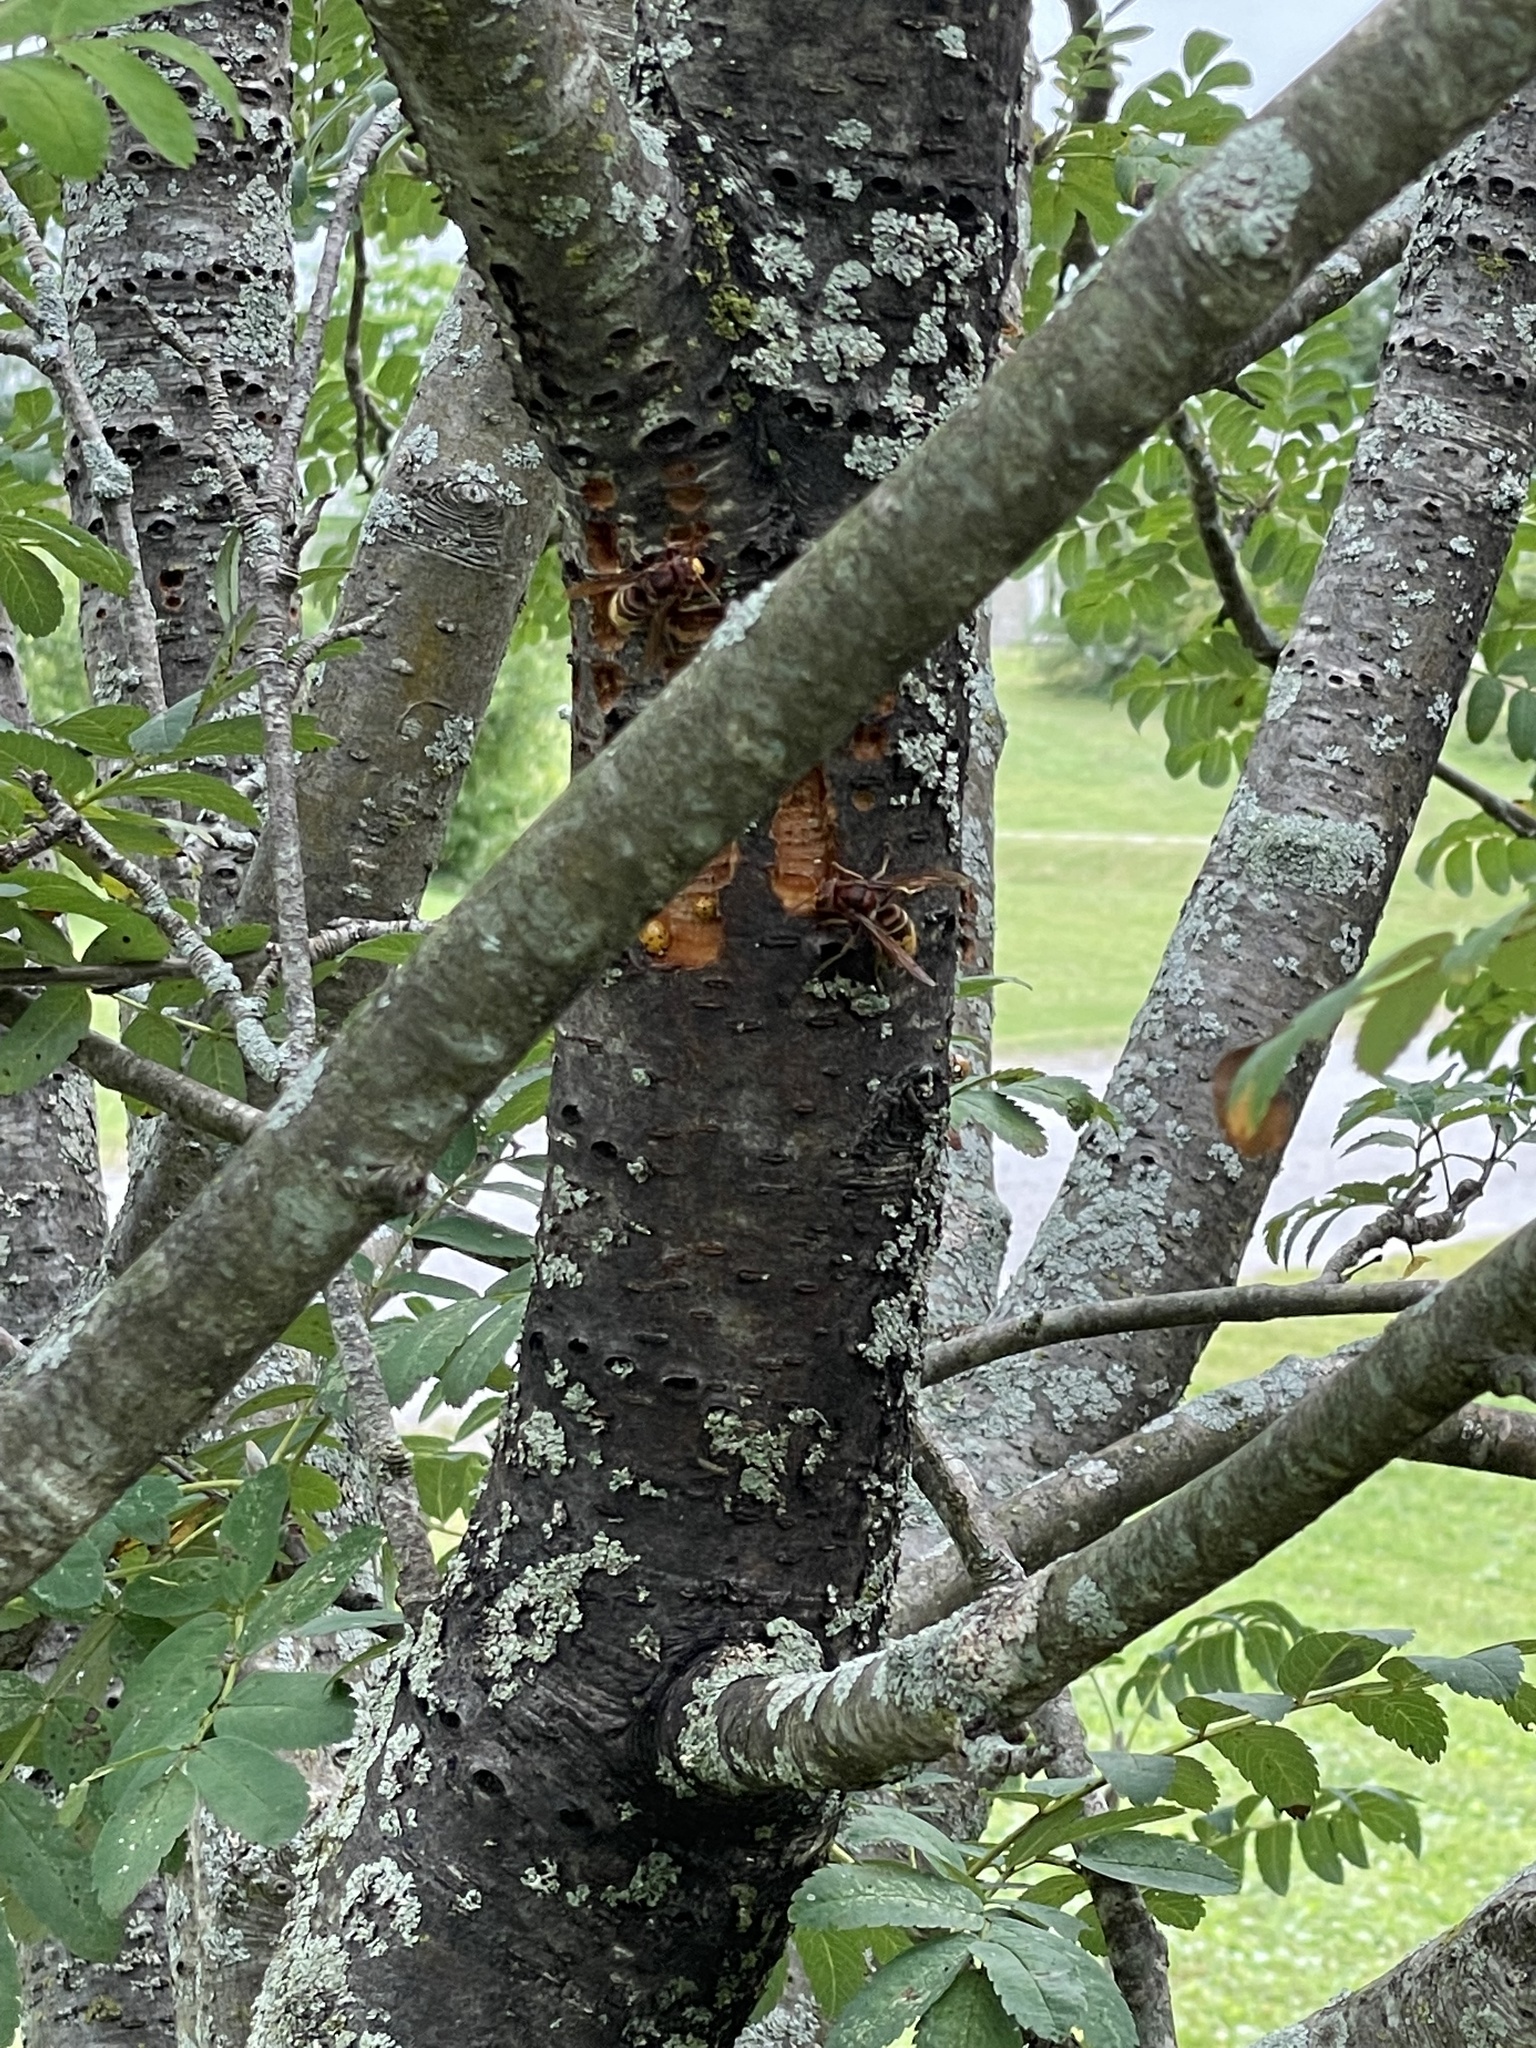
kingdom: Animalia
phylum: Arthropoda
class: Insecta
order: Hymenoptera
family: Vespidae
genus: Vespa
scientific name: Vespa crabro
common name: Hornet
